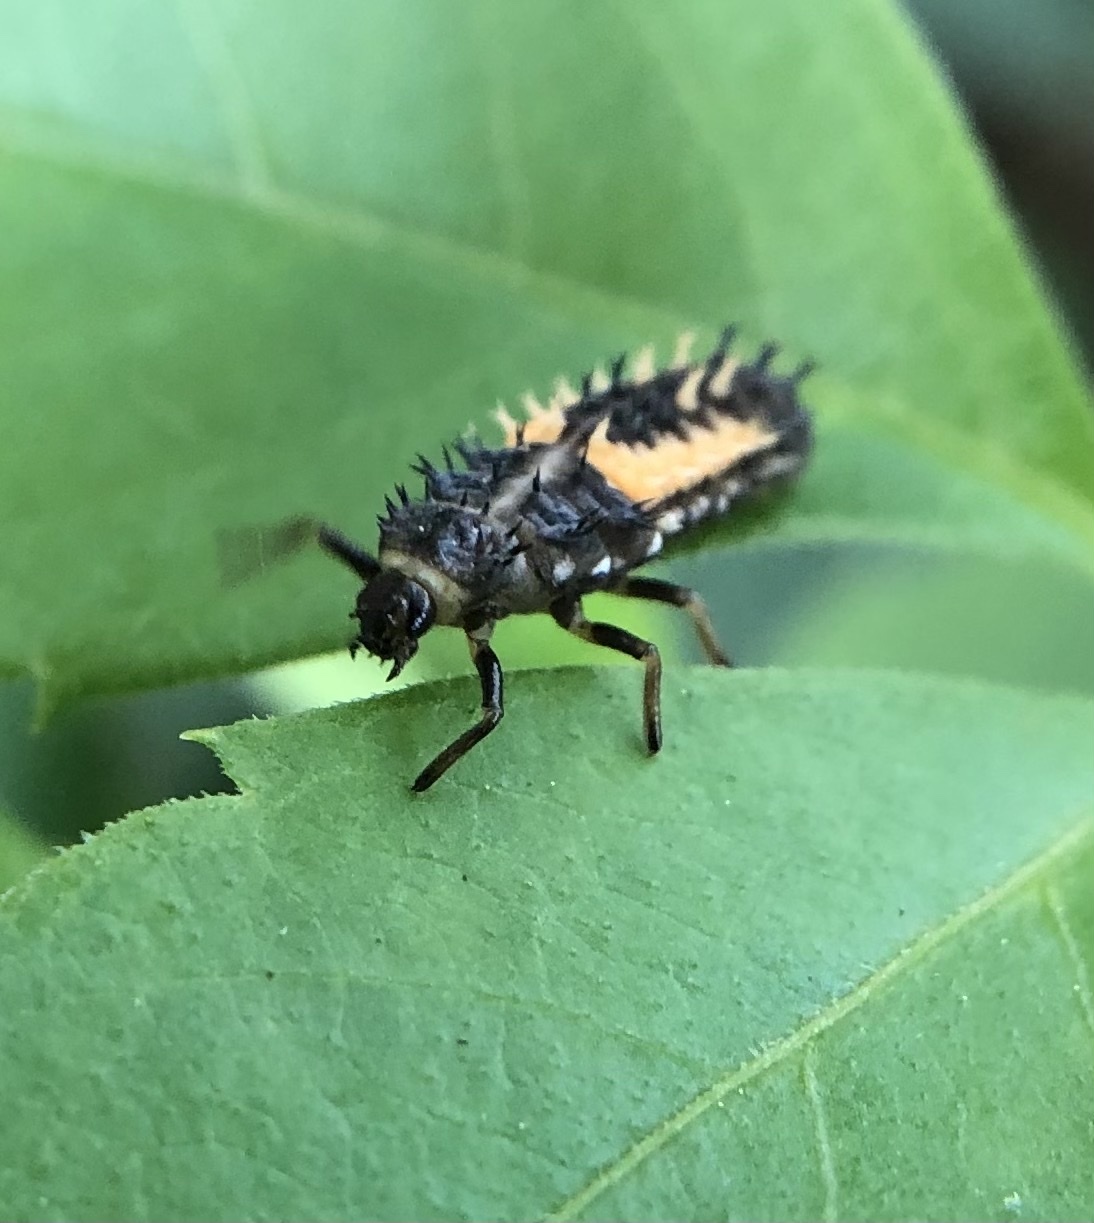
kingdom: Animalia
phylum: Arthropoda
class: Insecta
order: Coleoptera
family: Coccinellidae
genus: Harmonia
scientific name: Harmonia axyridis
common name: Harlequin ladybird
